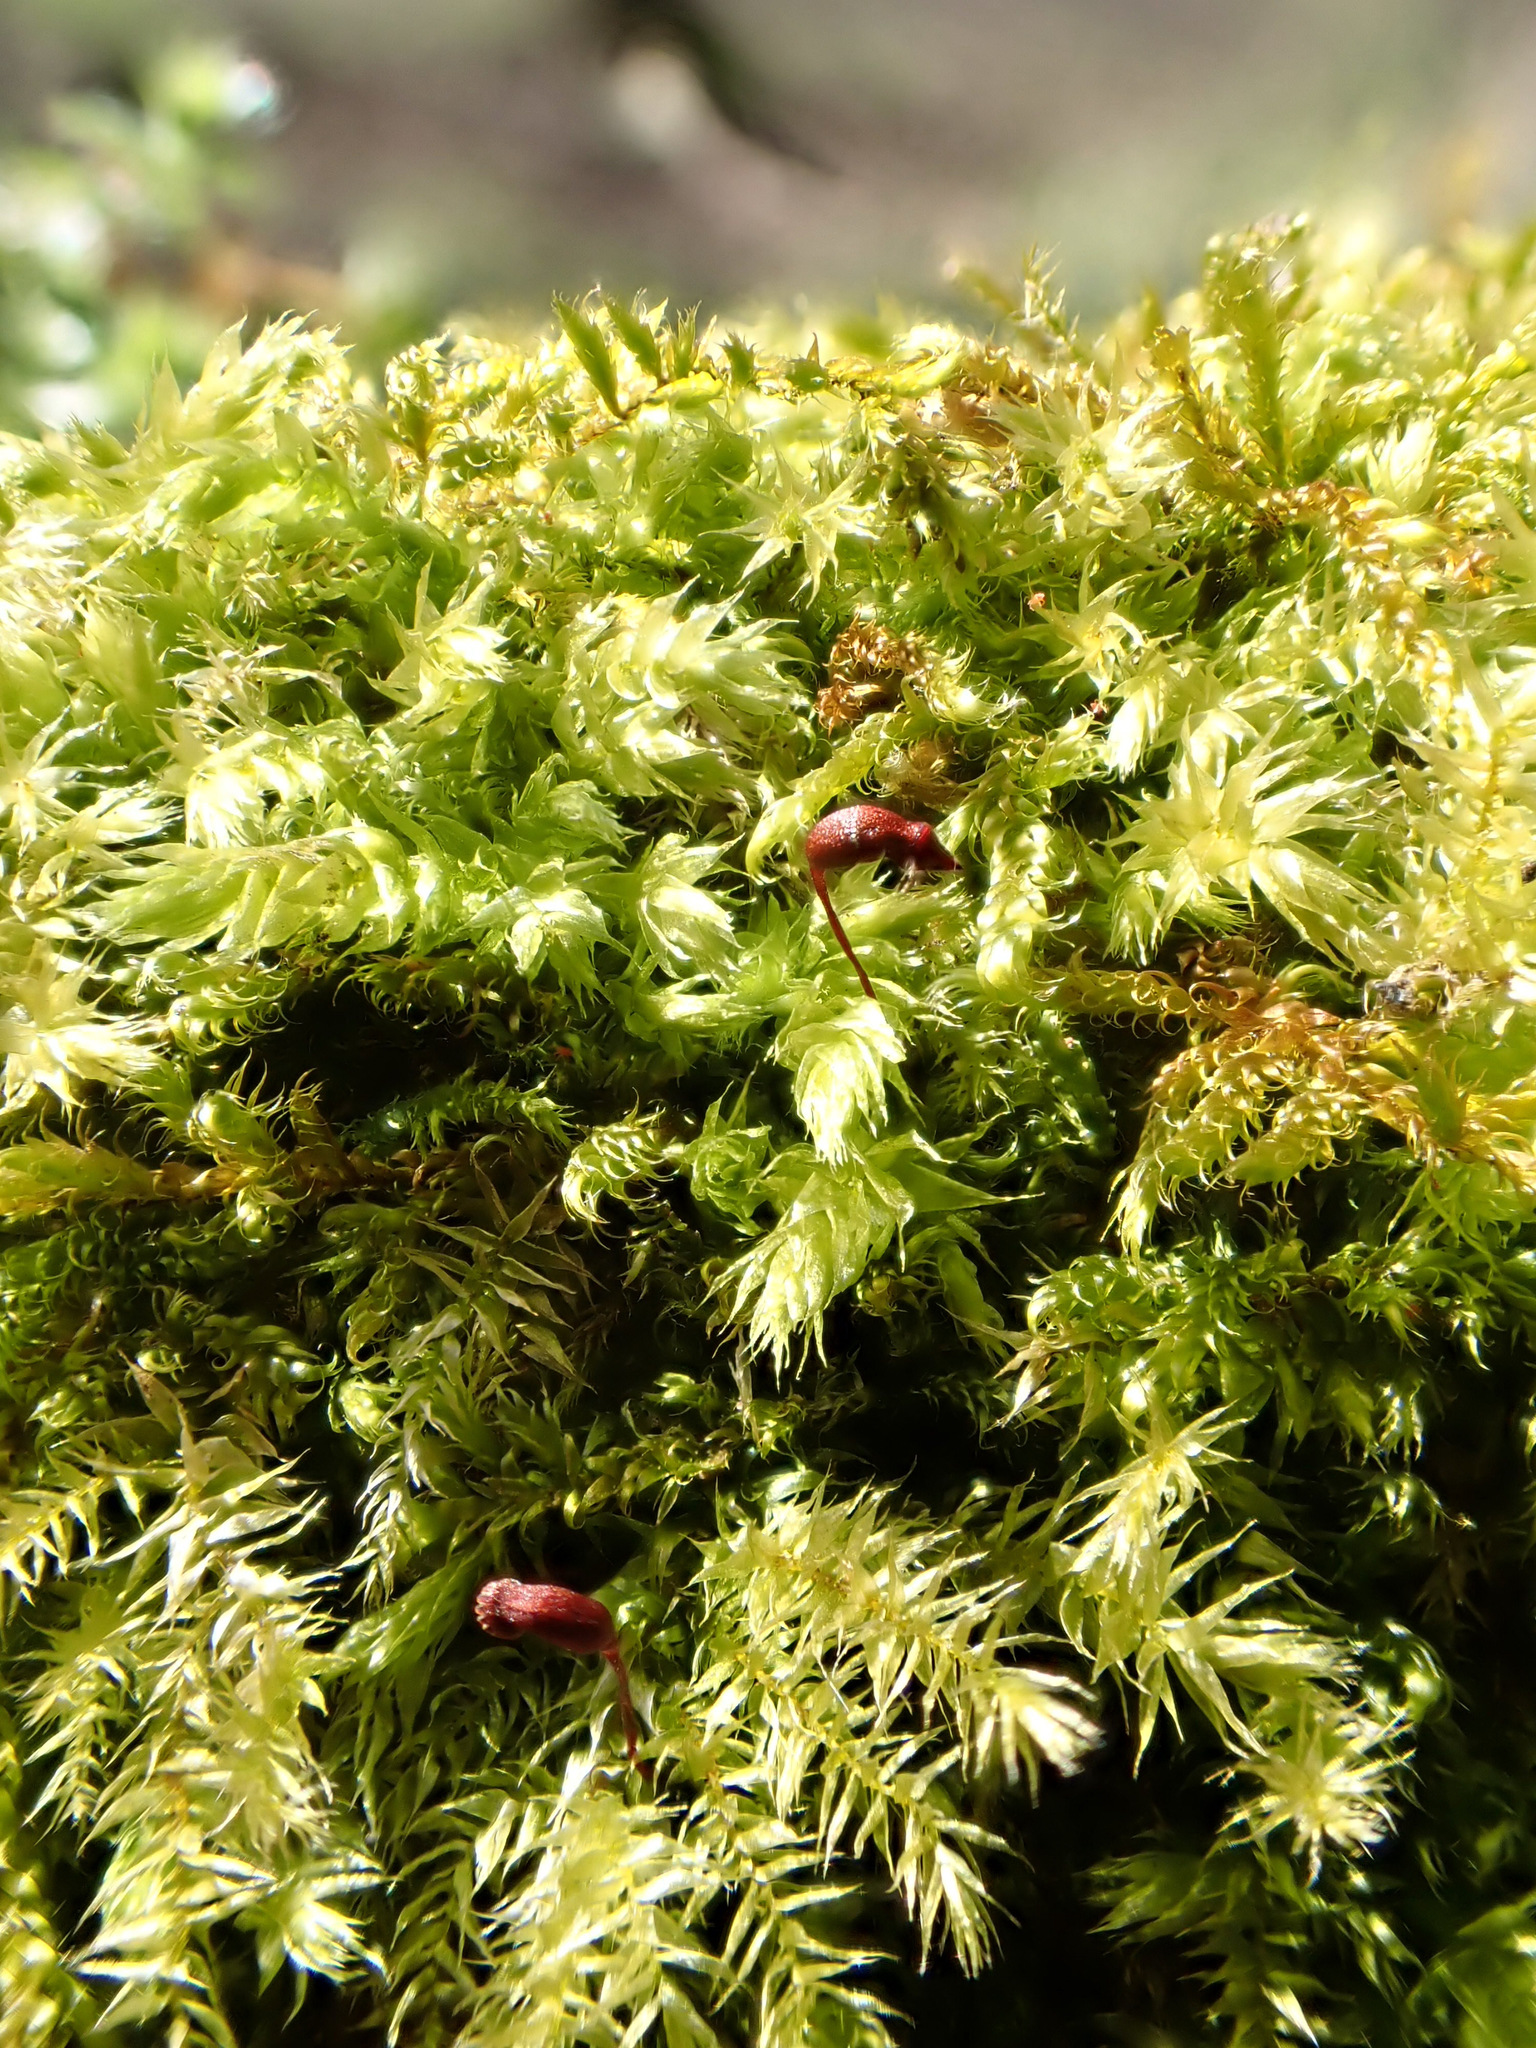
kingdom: Plantae
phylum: Bryophyta
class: Bryopsida
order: Hypnales
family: Brachytheciaceae
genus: Brachythecium
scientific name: Brachythecium rutabulum
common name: Rough-stalked feather-moss
